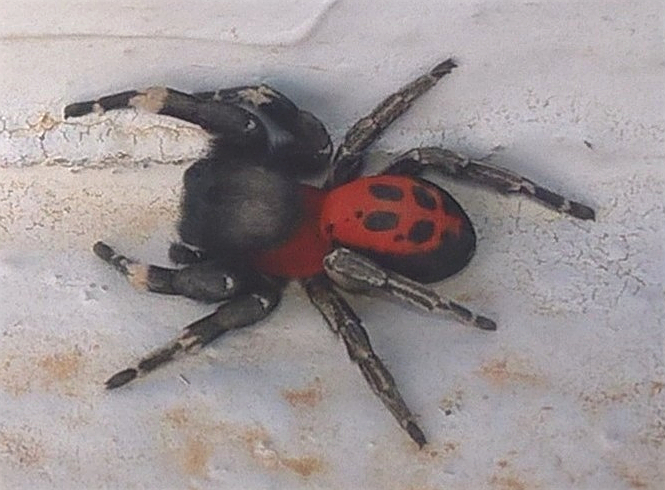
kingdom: Animalia
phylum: Arthropoda
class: Arachnida
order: Araneae
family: Eresidae
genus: Eresus
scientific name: Eresus
